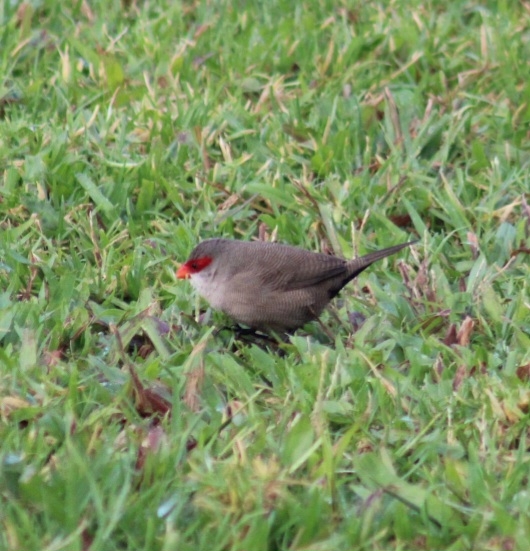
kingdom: Animalia
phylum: Chordata
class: Aves
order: Passeriformes
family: Estrildidae
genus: Estrilda
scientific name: Estrilda astrild
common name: Common waxbill
